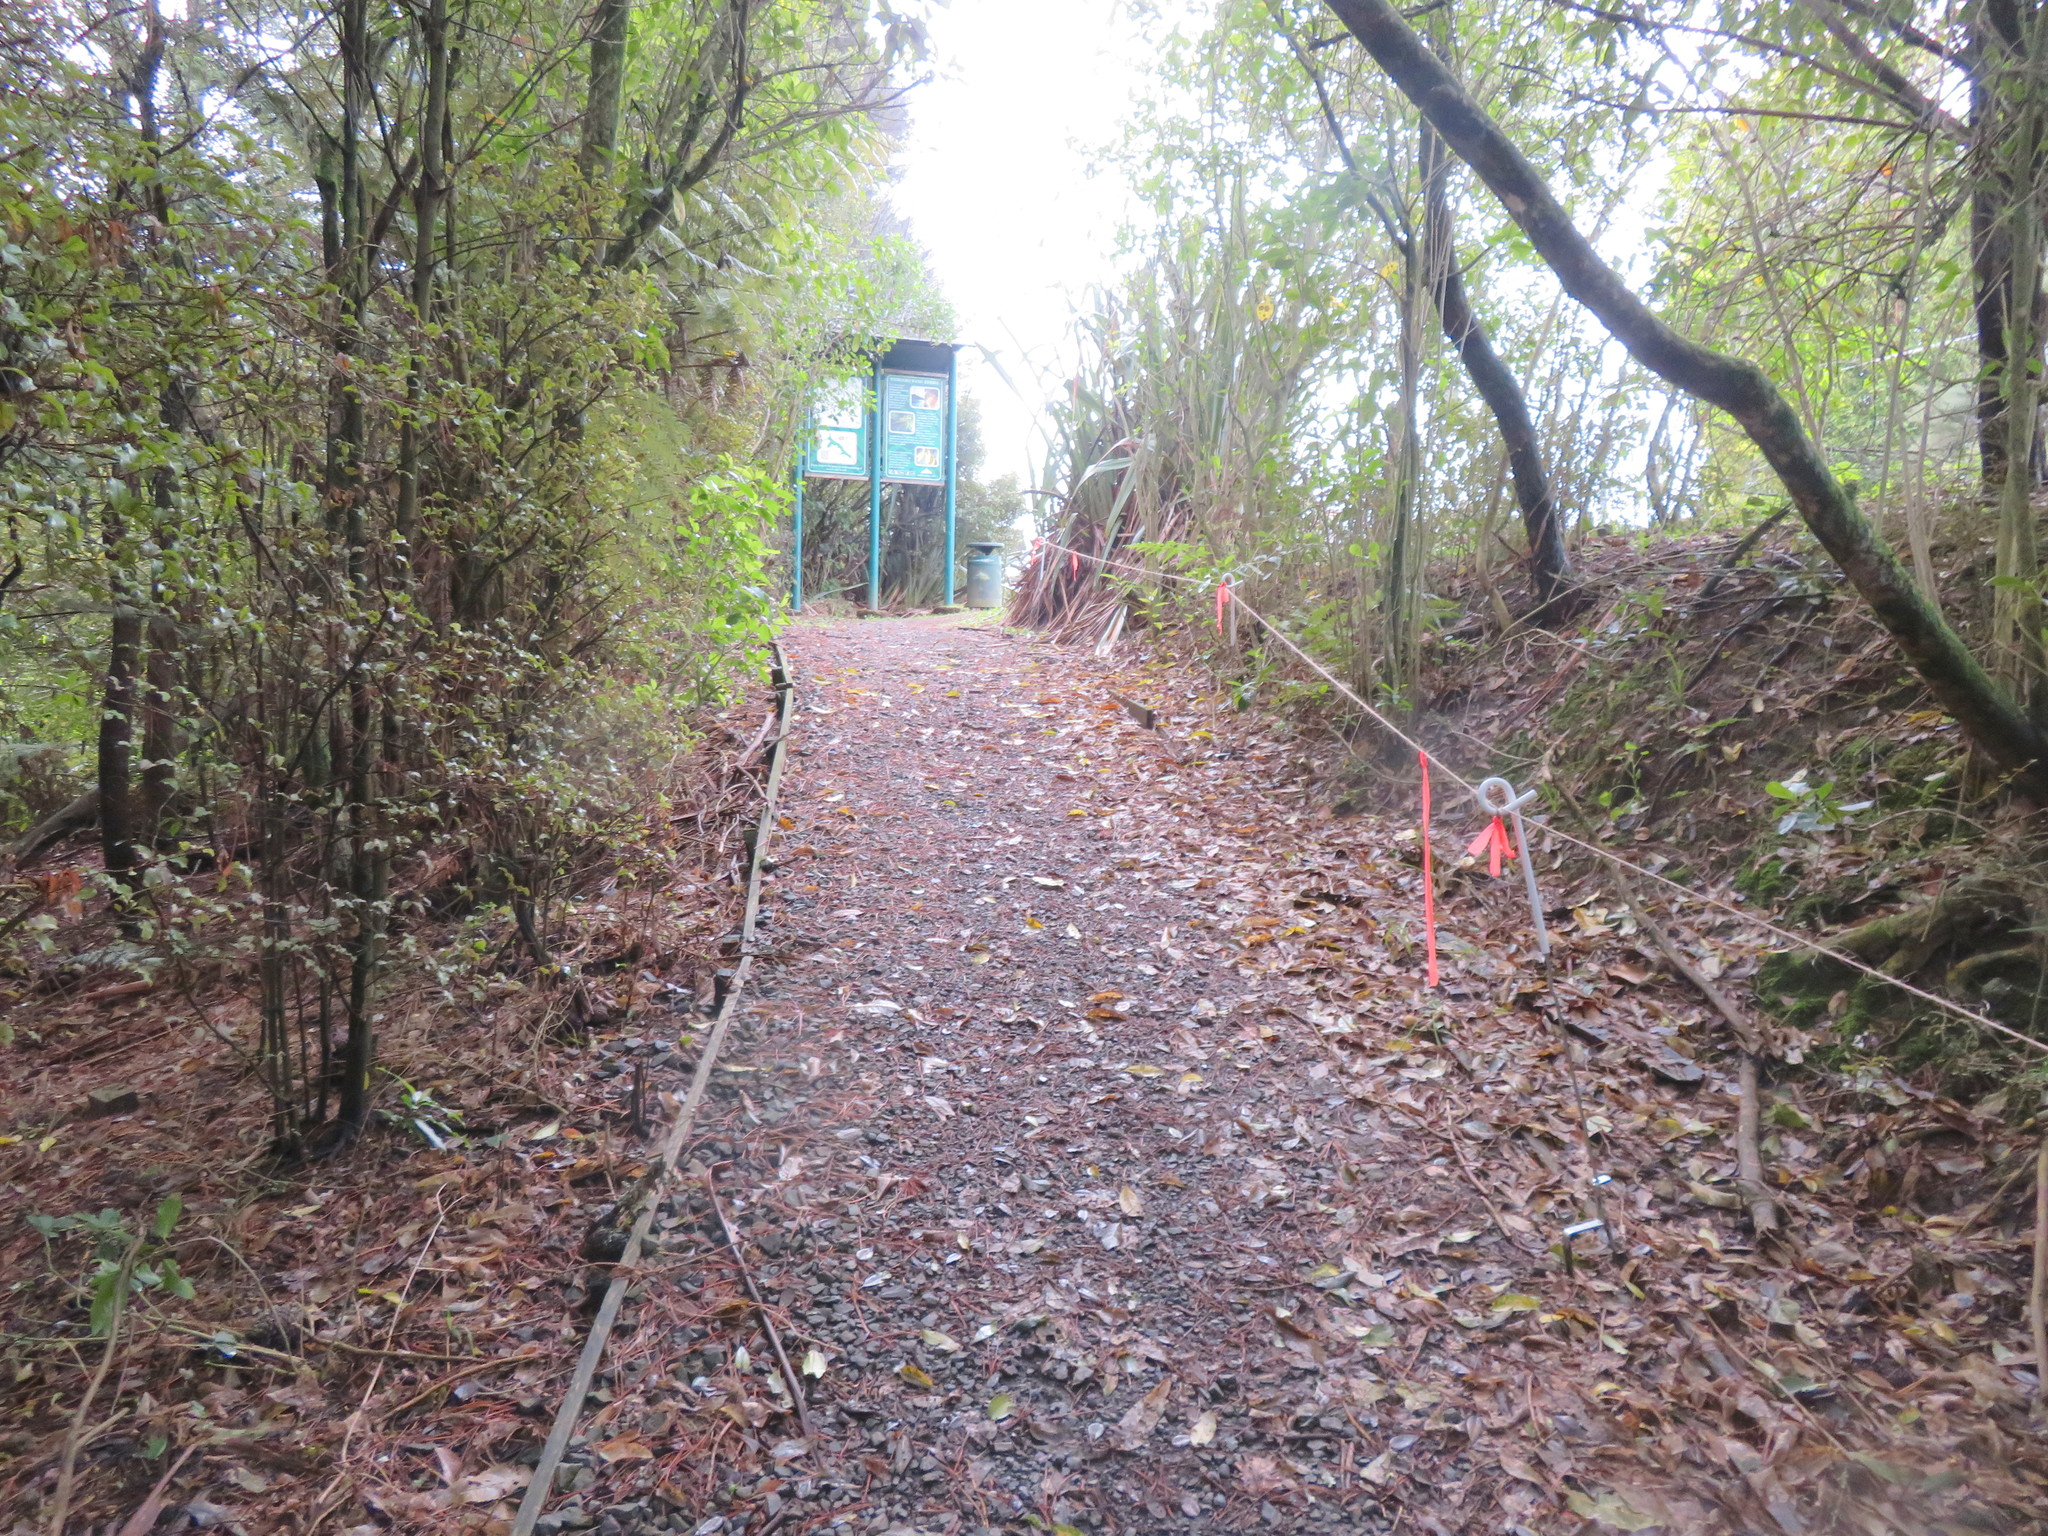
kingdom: Plantae
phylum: Tracheophyta
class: Magnoliopsida
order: Ericales
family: Primulaceae
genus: Myrsine
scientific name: Myrsine australis
